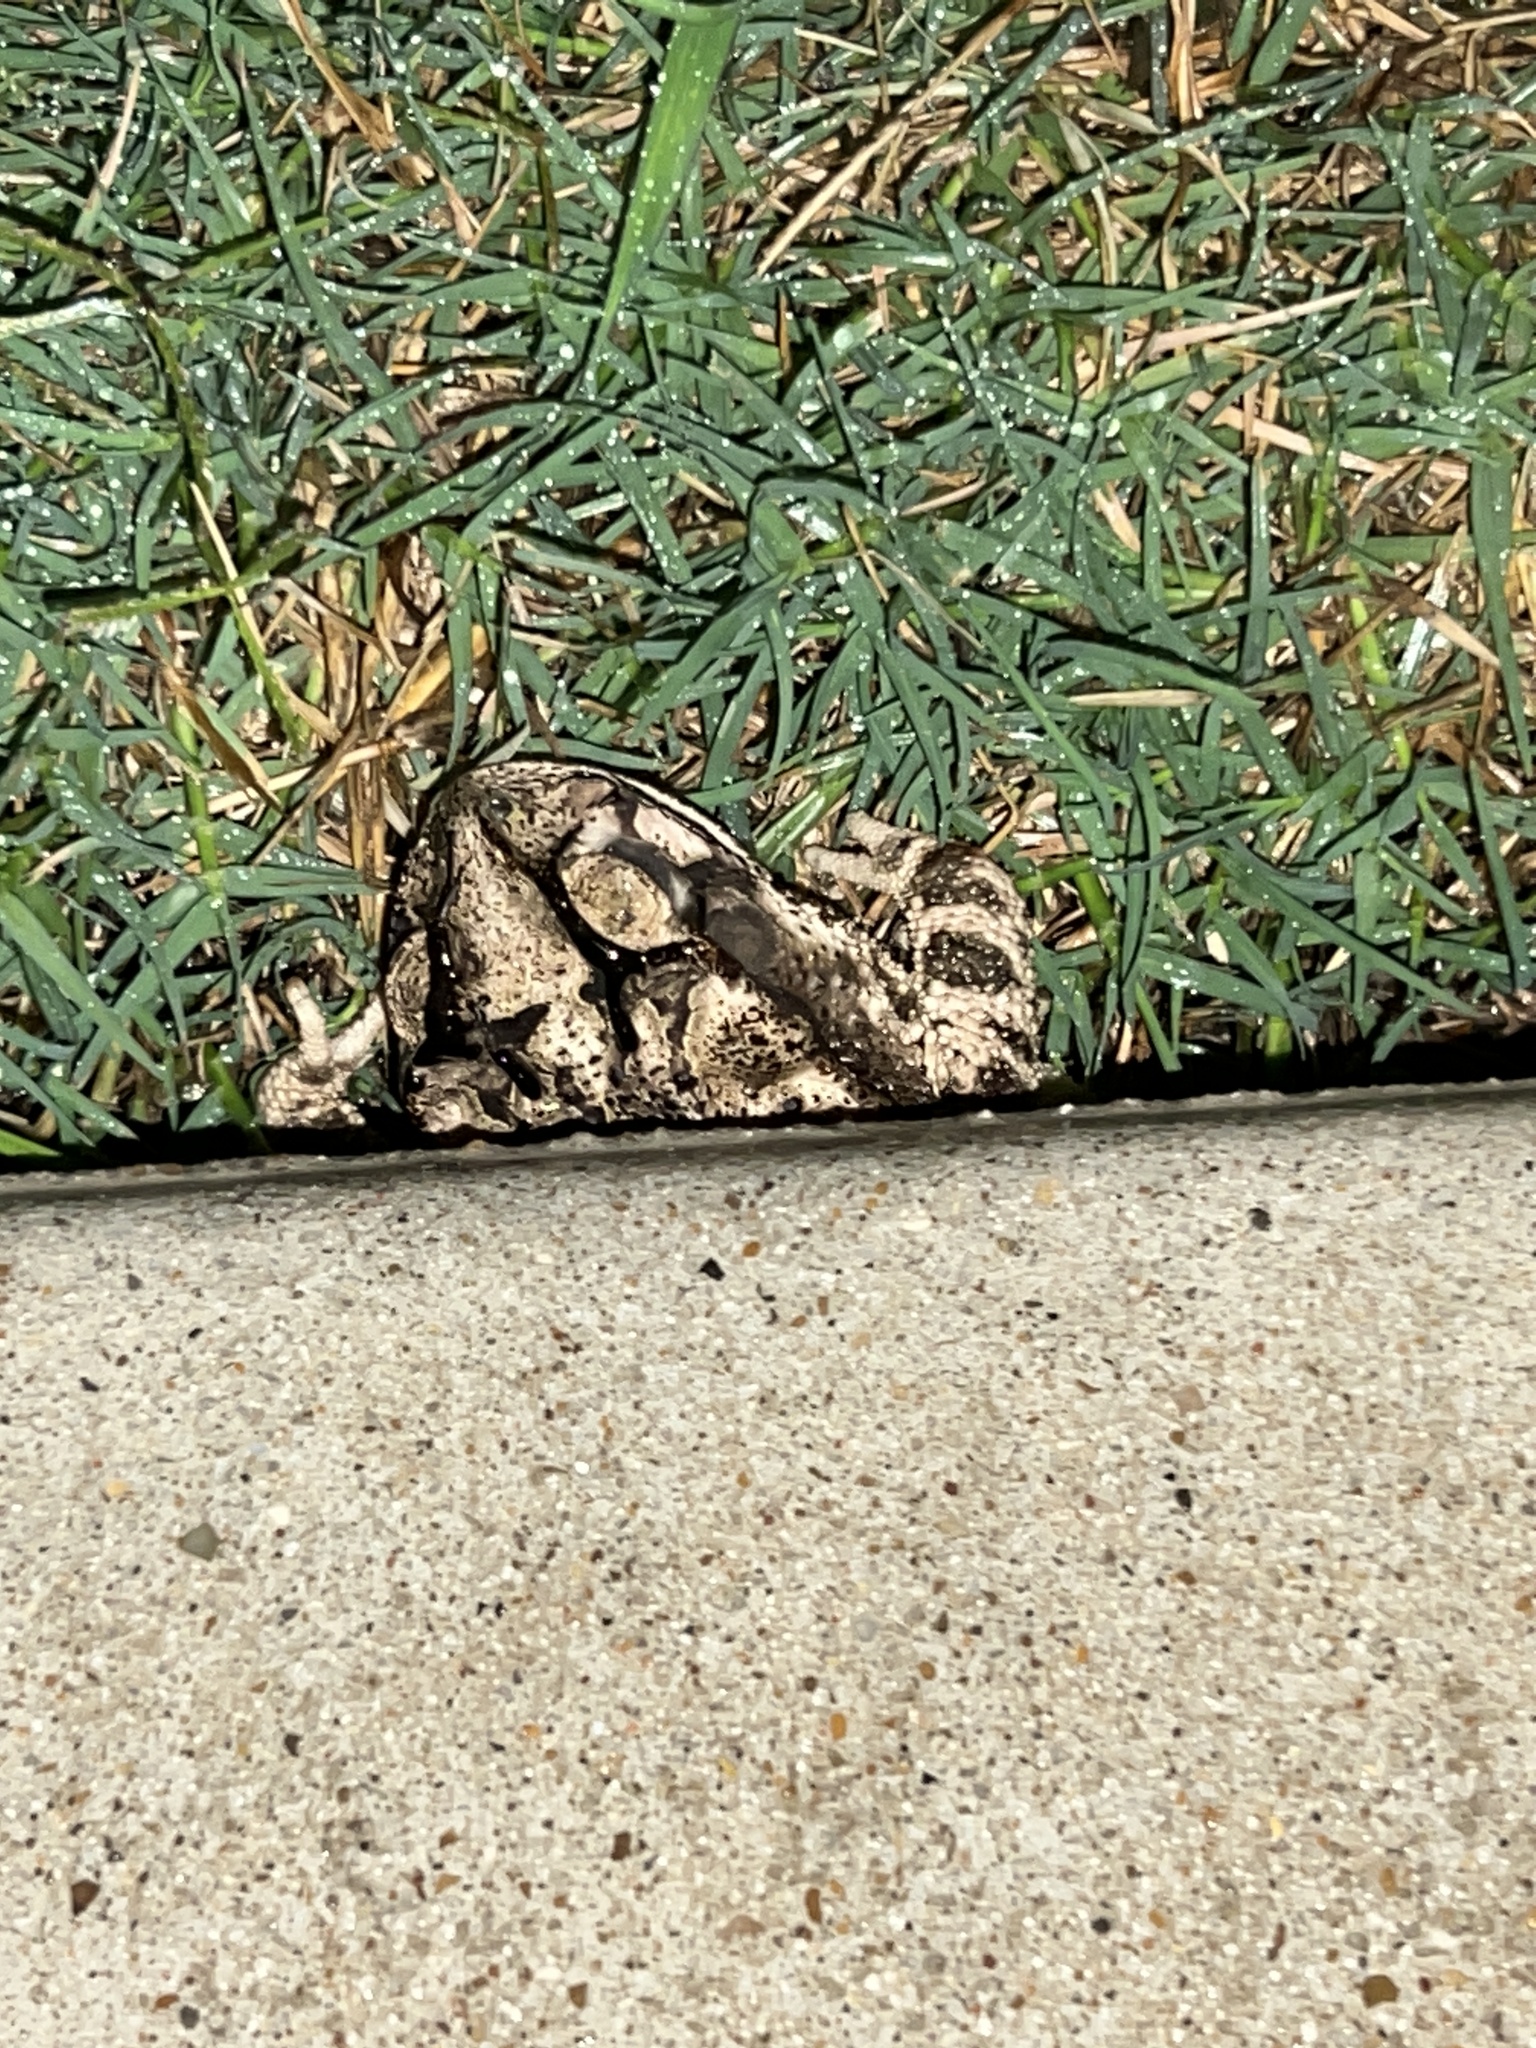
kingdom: Animalia
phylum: Chordata
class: Amphibia
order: Anura
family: Bufonidae
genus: Incilius
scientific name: Incilius nebulifer
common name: Gulf coast toad
